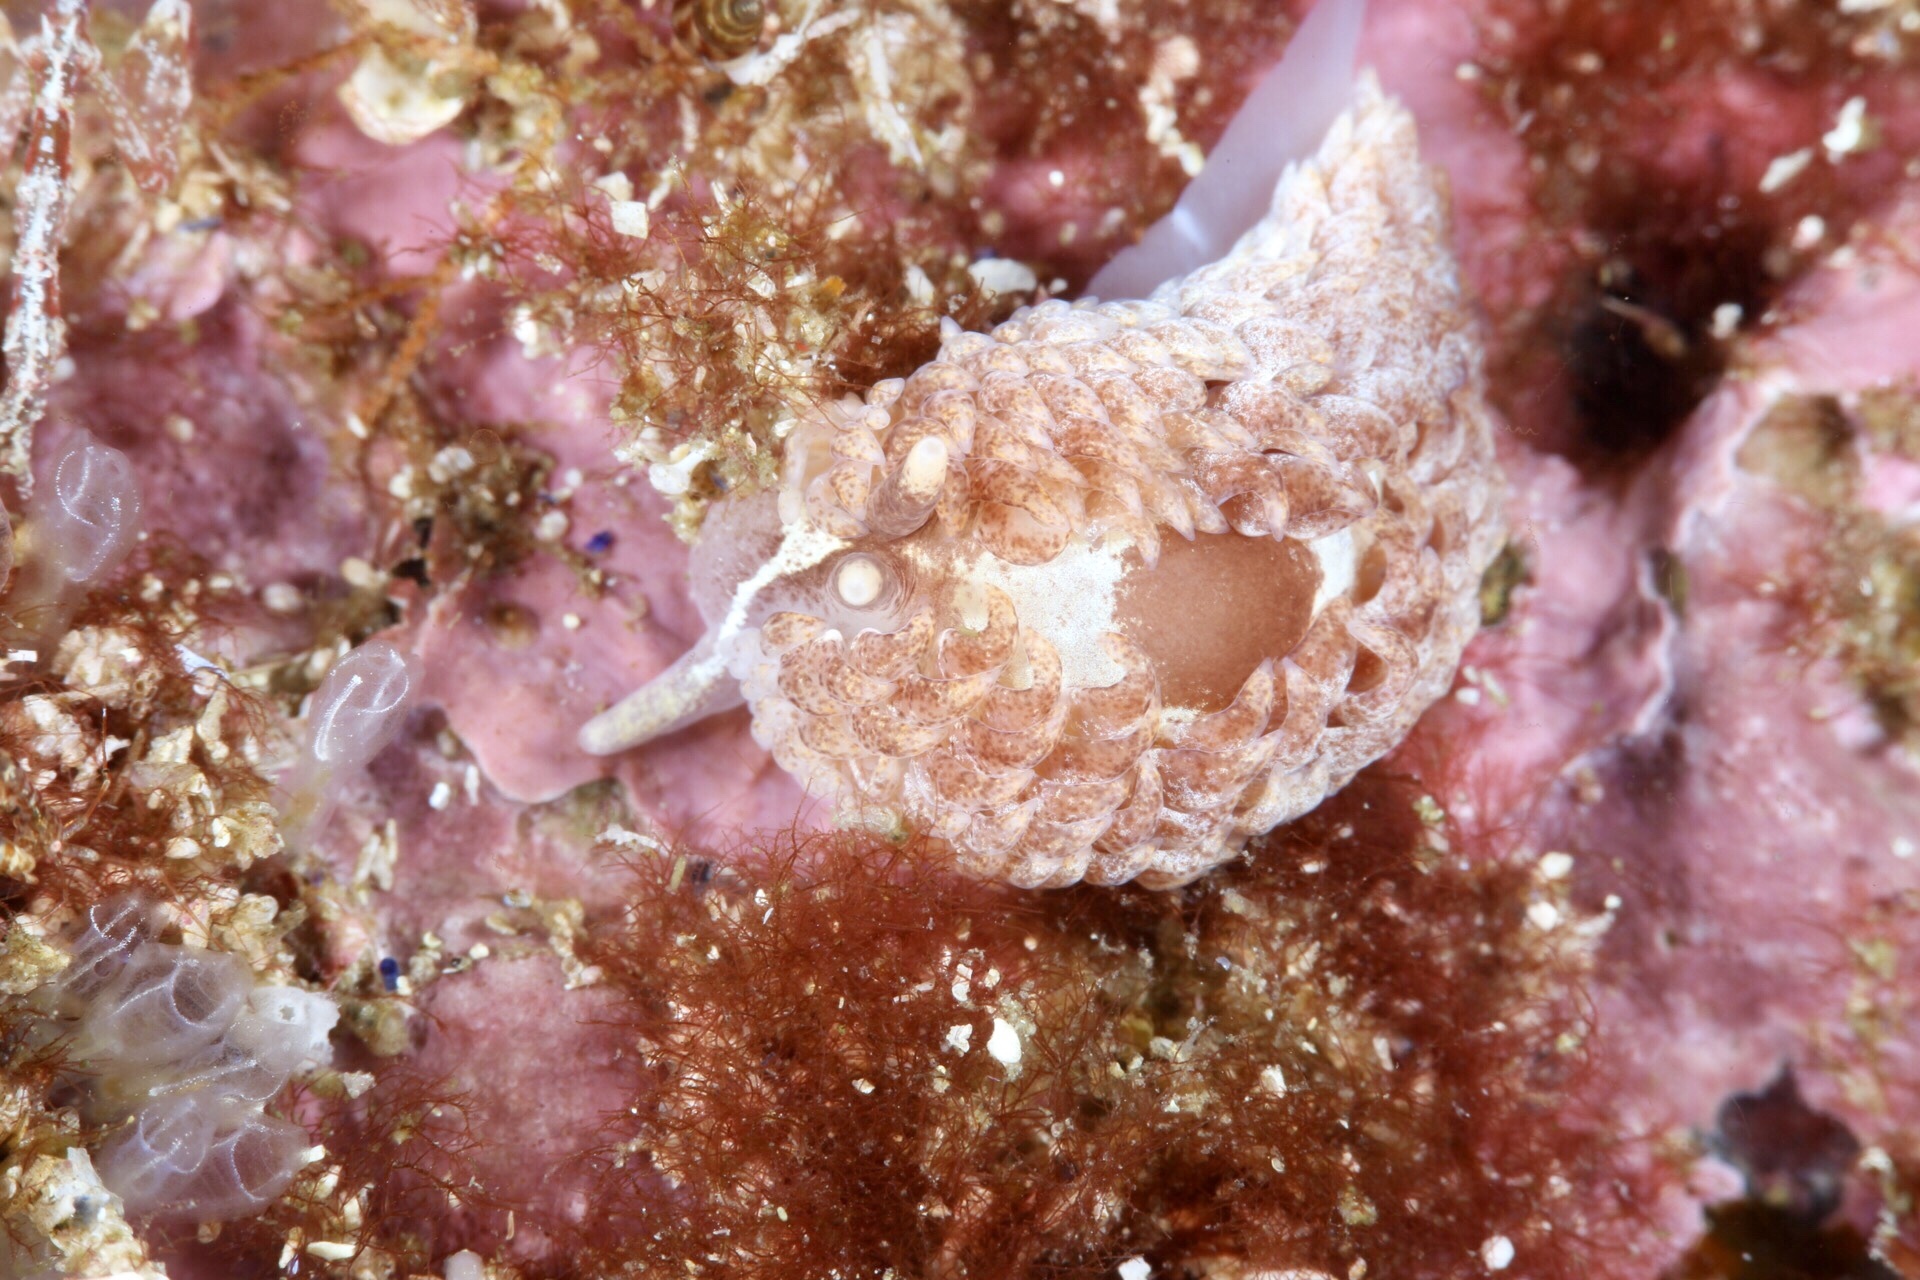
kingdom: Animalia
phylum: Mollusca
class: Gastropoda
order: Nudibranchia
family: Aeolidiidae
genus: Aeolidia
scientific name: Aeolidia filomenae
